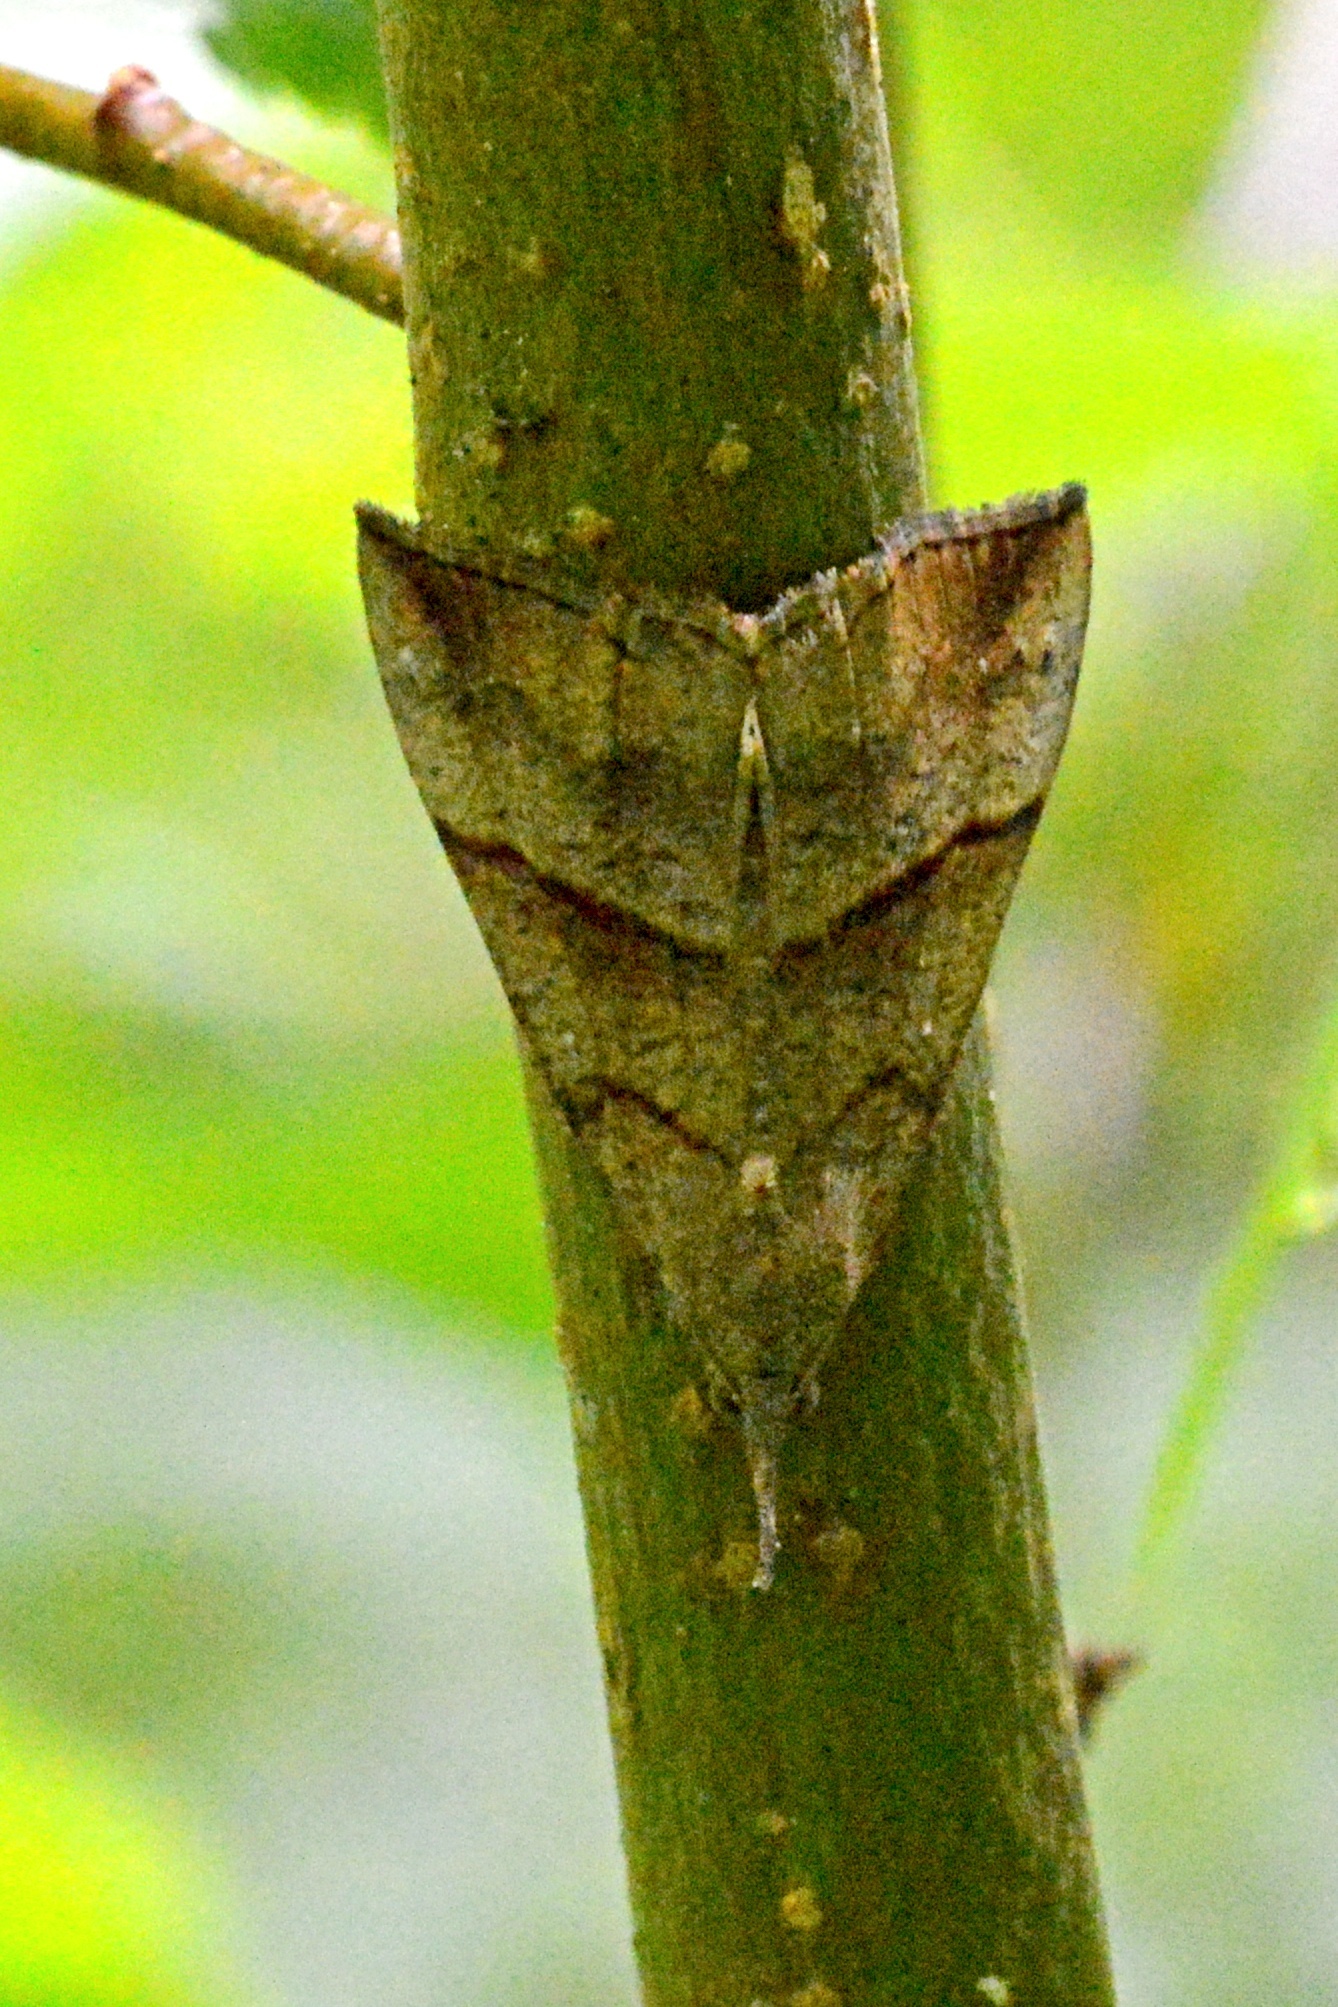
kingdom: Animalia
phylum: Arthropoda
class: Insecta
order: Lepidoptera
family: Erebidae
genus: Hypena
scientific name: Hypena proboscidalis
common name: Snout
